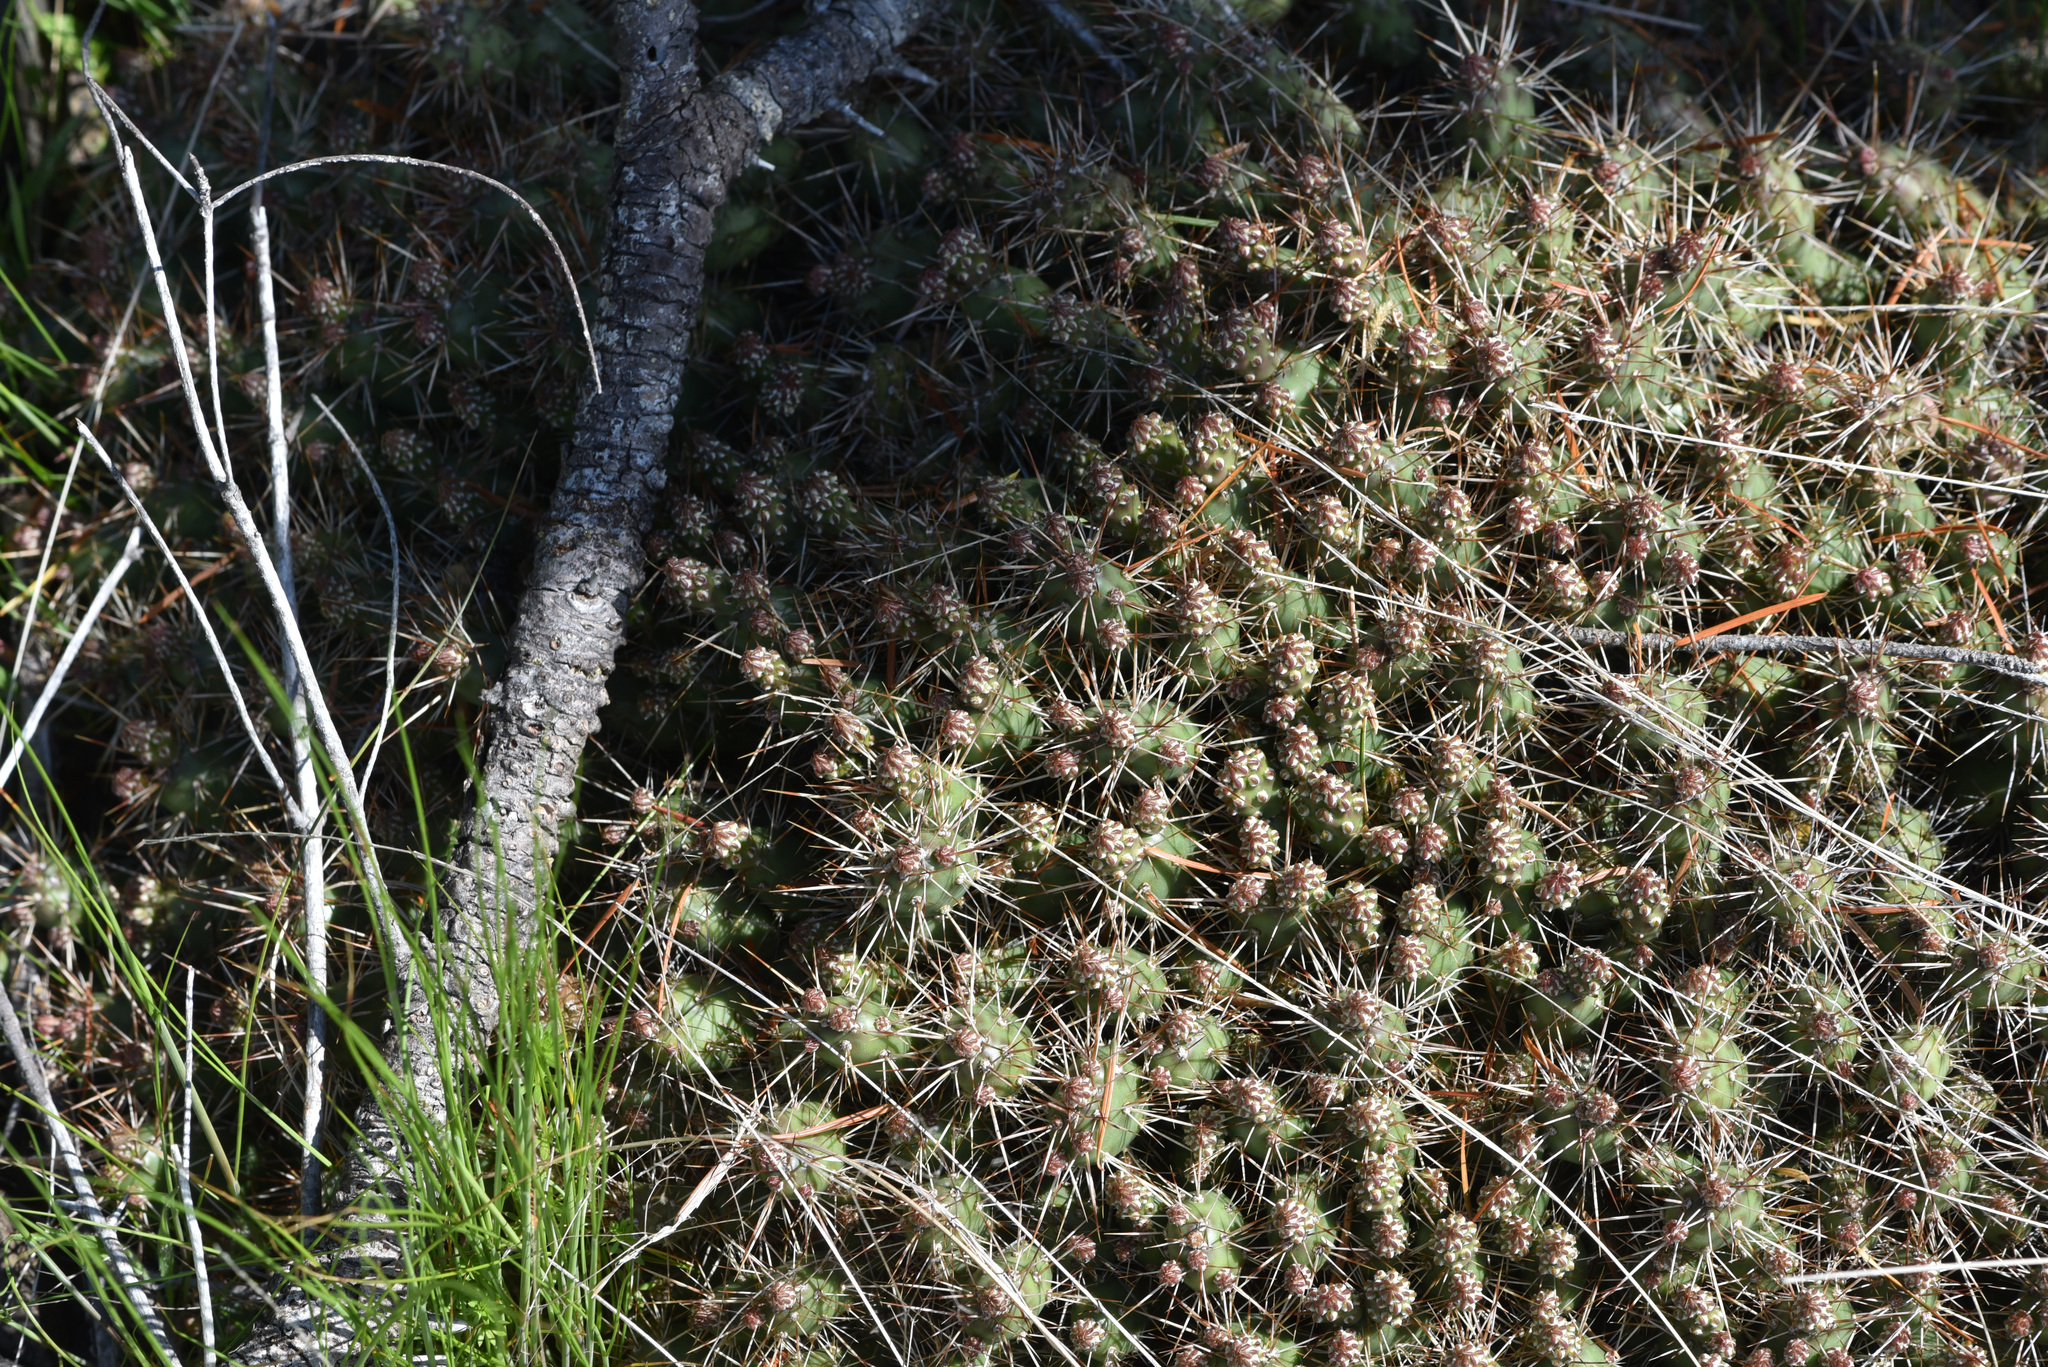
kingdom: Plantae
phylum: Tracheophyta
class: Magnoliopsida
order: Caryophyllales
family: Cactaceae
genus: Opuntia
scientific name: Opuntia fragilis
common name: Brittle cactus
